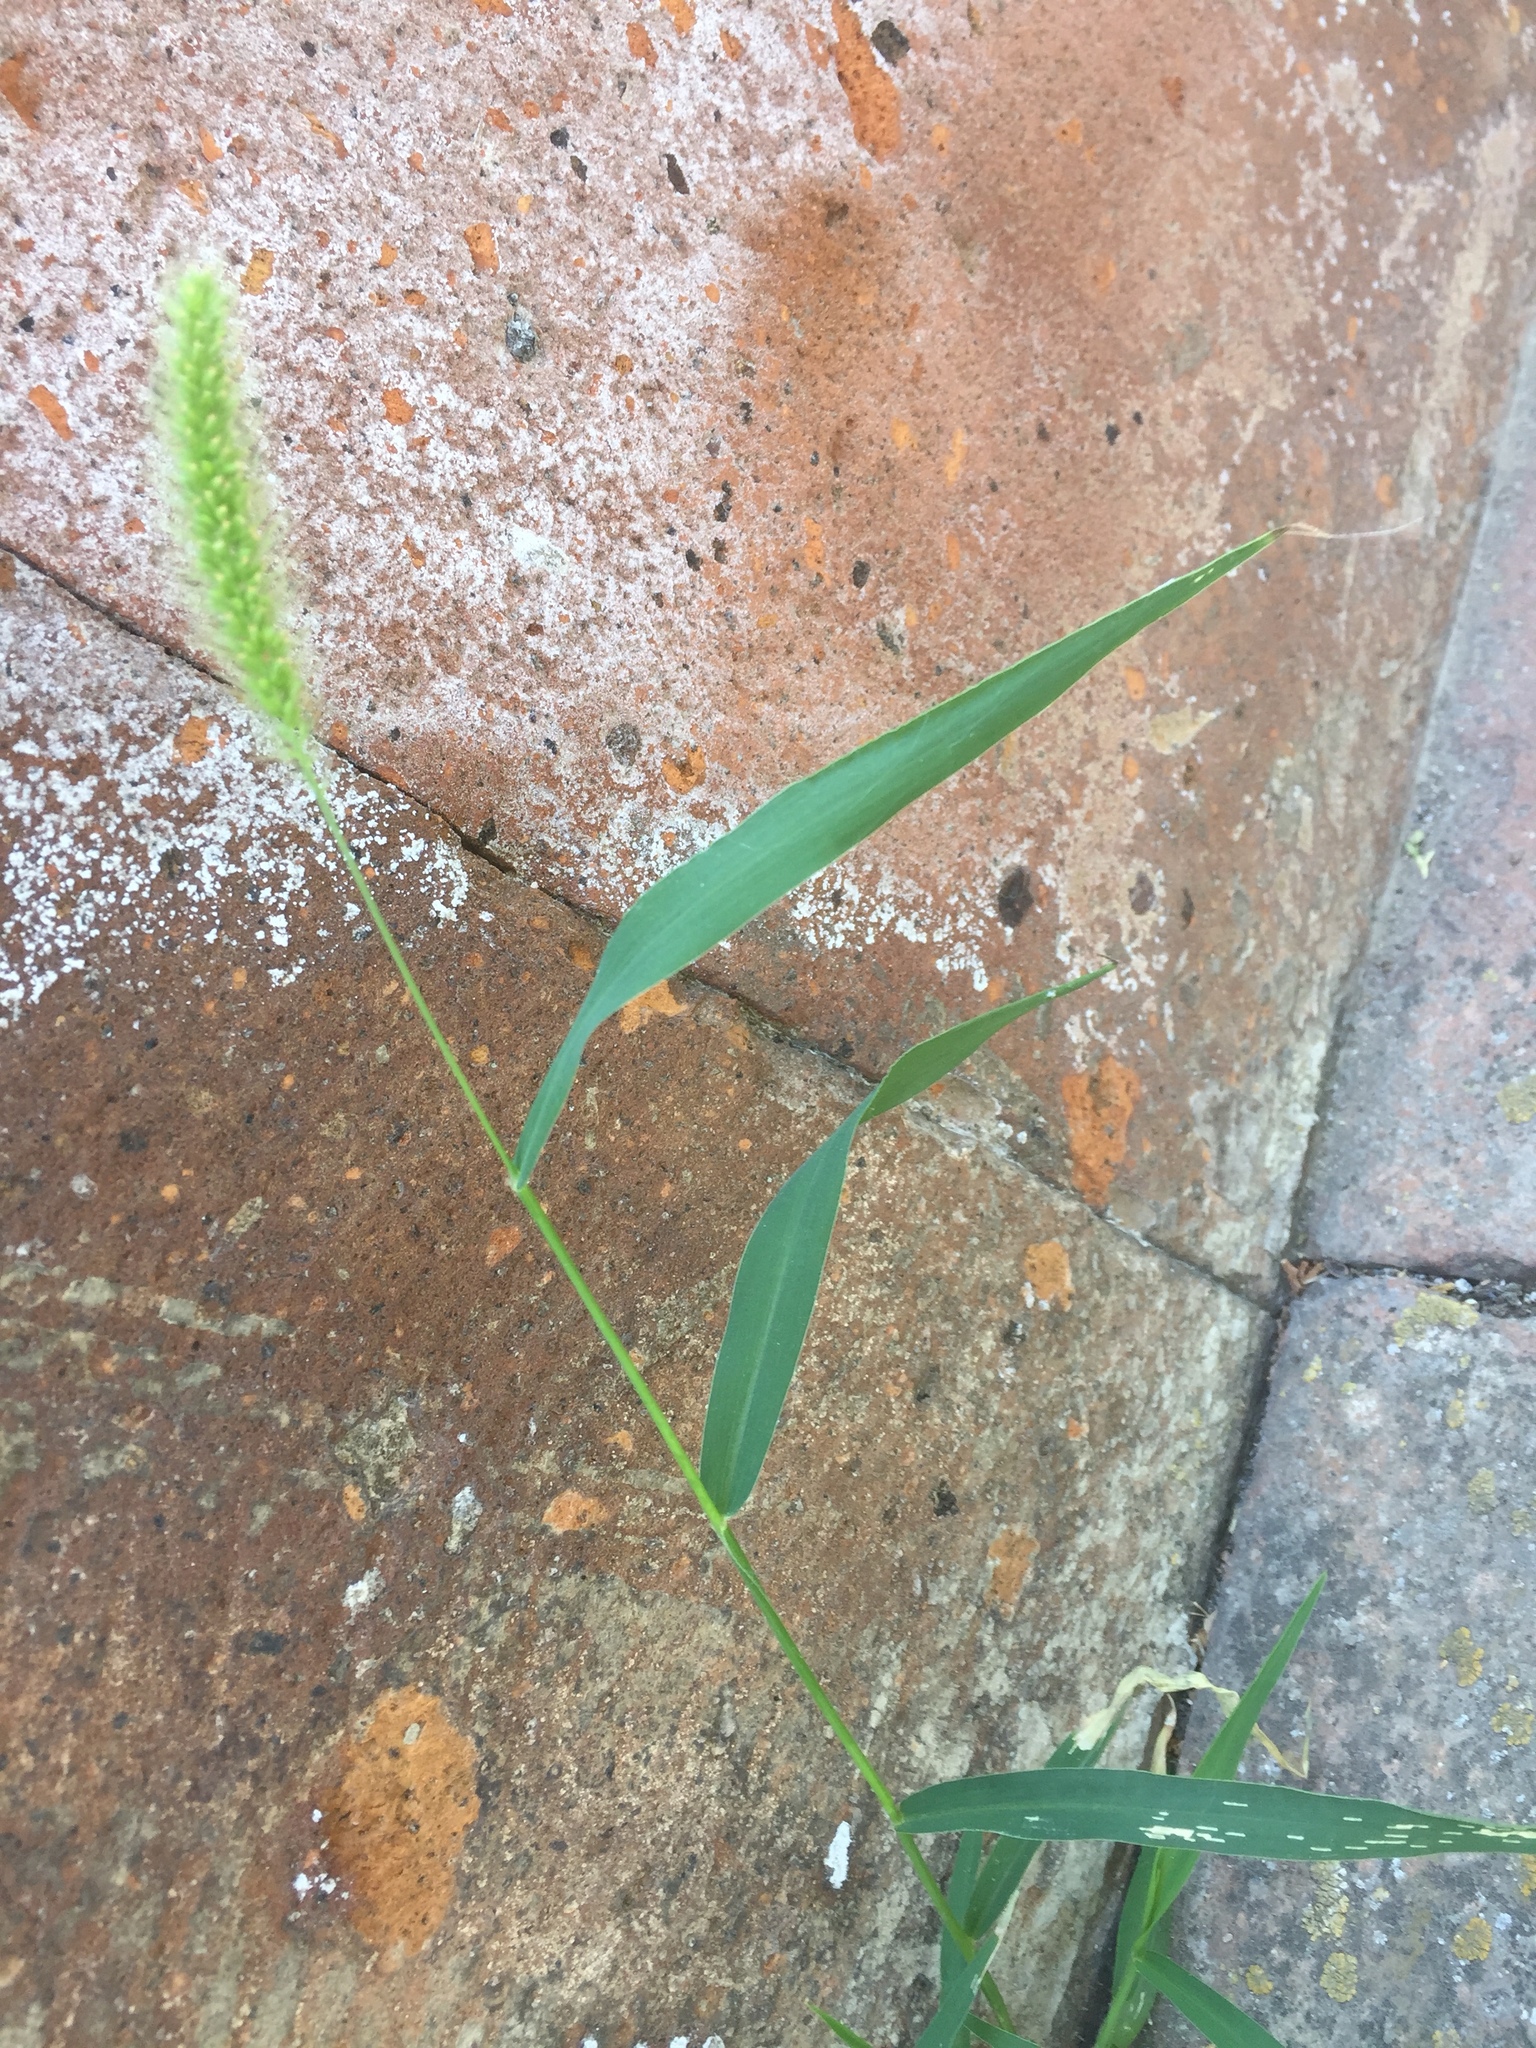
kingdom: Plantae
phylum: Tracheophyta
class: Liliopsida
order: Poales
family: Poaceae
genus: Setaria
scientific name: Setaria viridis
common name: Green bristlegrass
